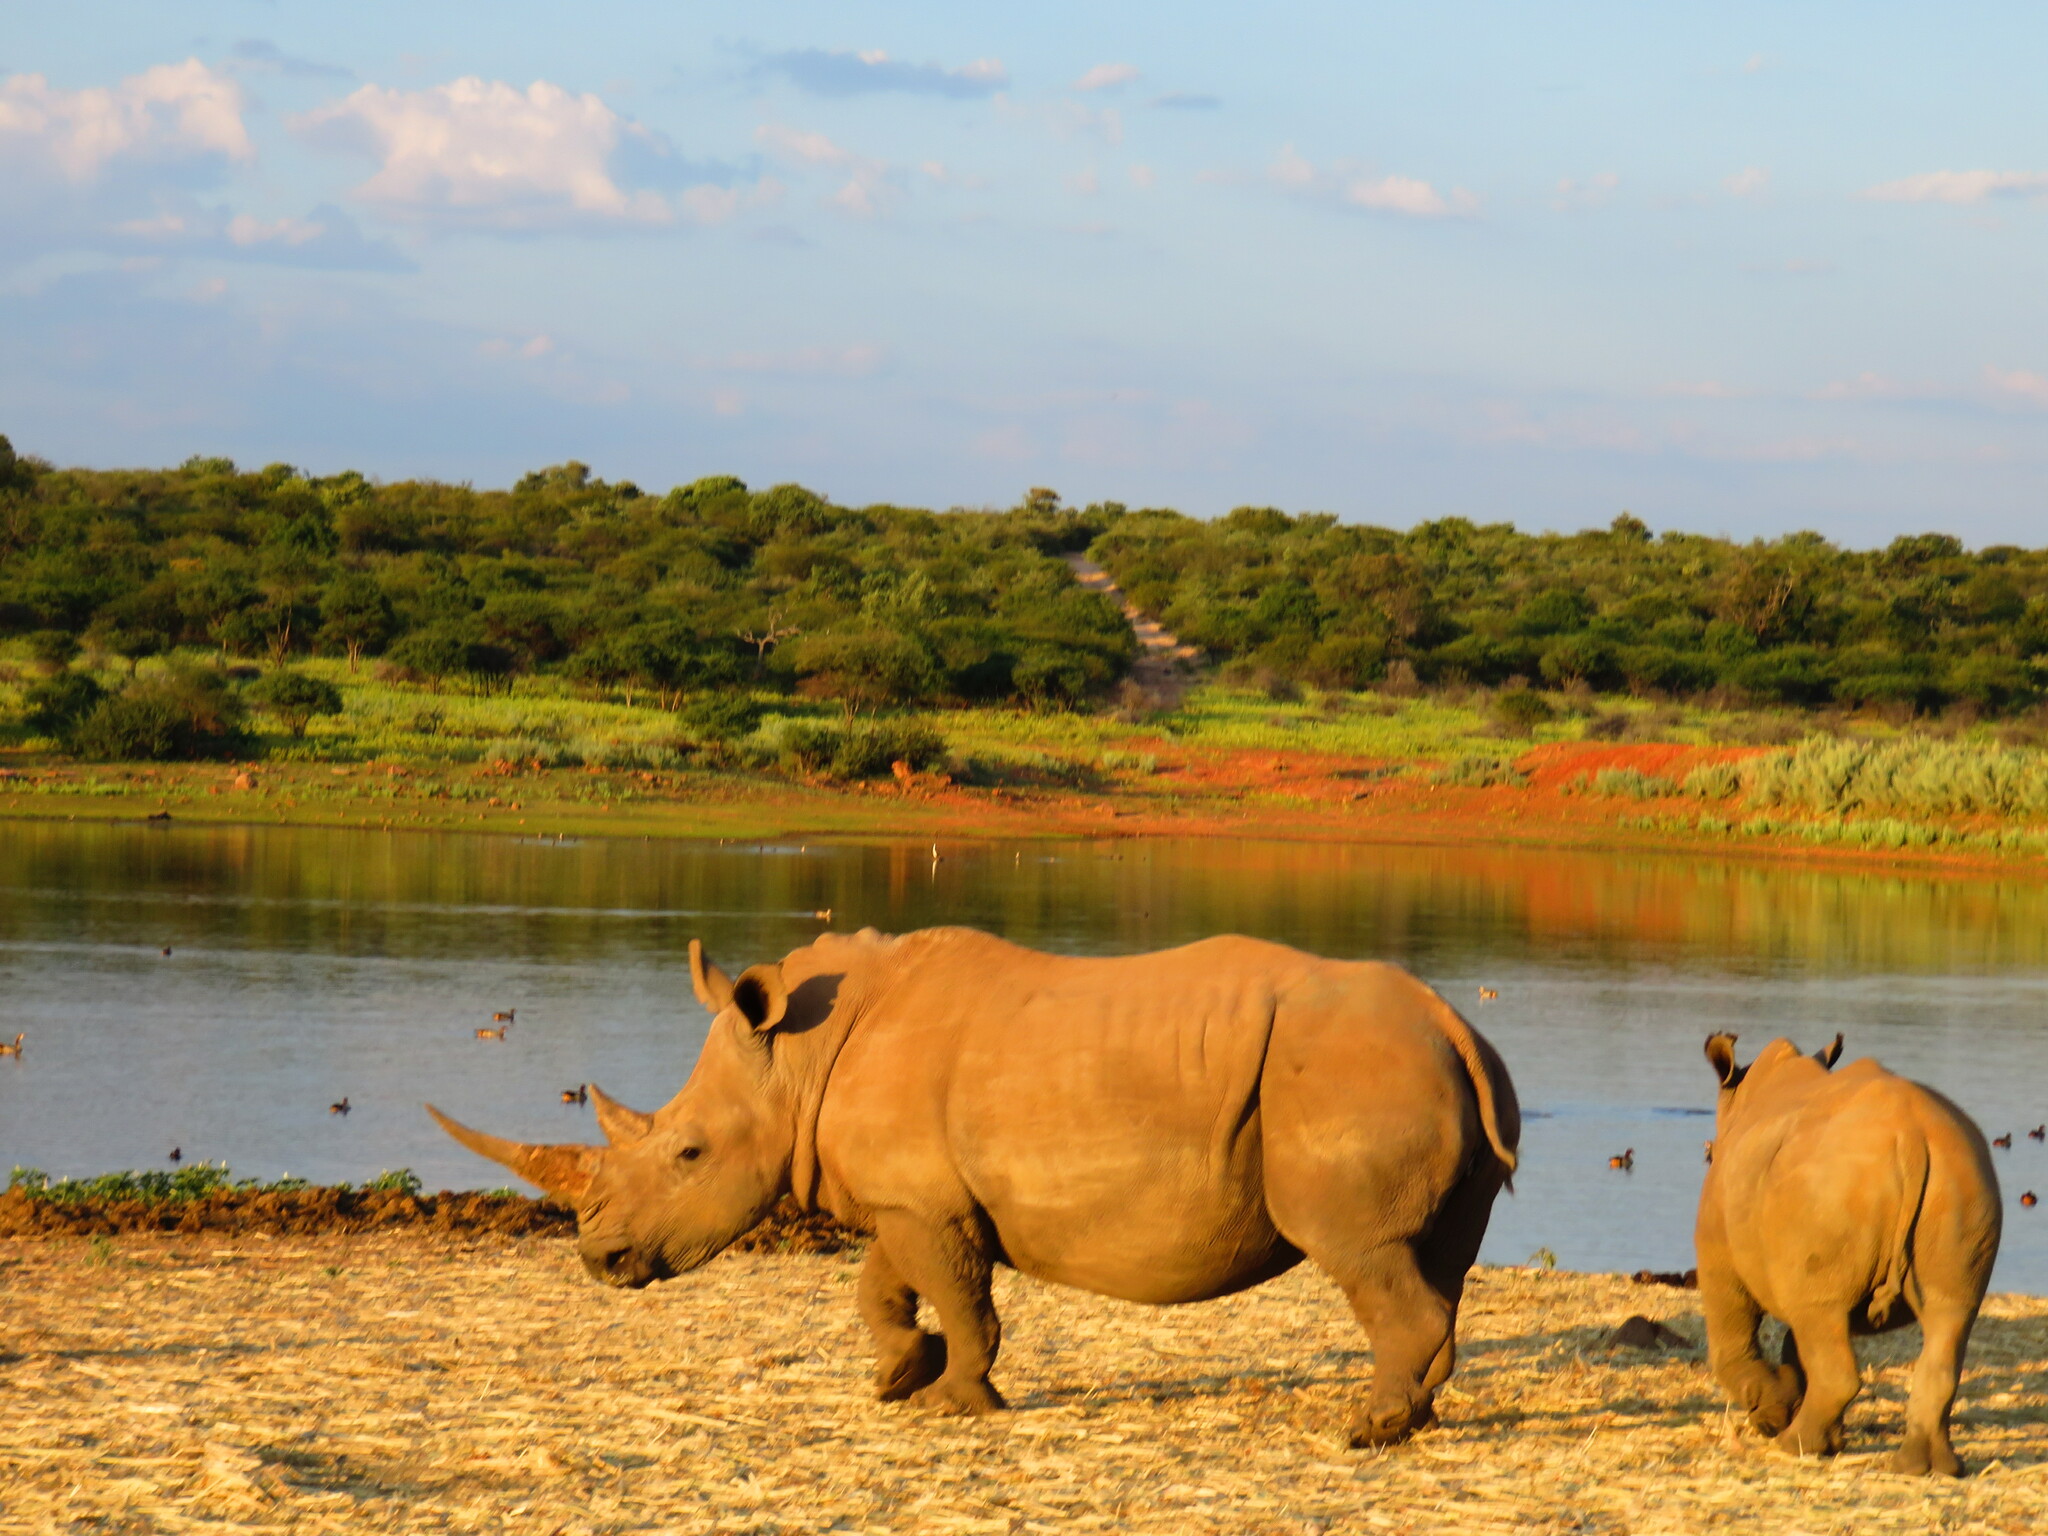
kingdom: Animalia
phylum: Chordata
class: Mammalia
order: Perissodactyla
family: Rhinocerotidae
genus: Ceratotherium
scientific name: Ceratotherium simum
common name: White rhinoceros
